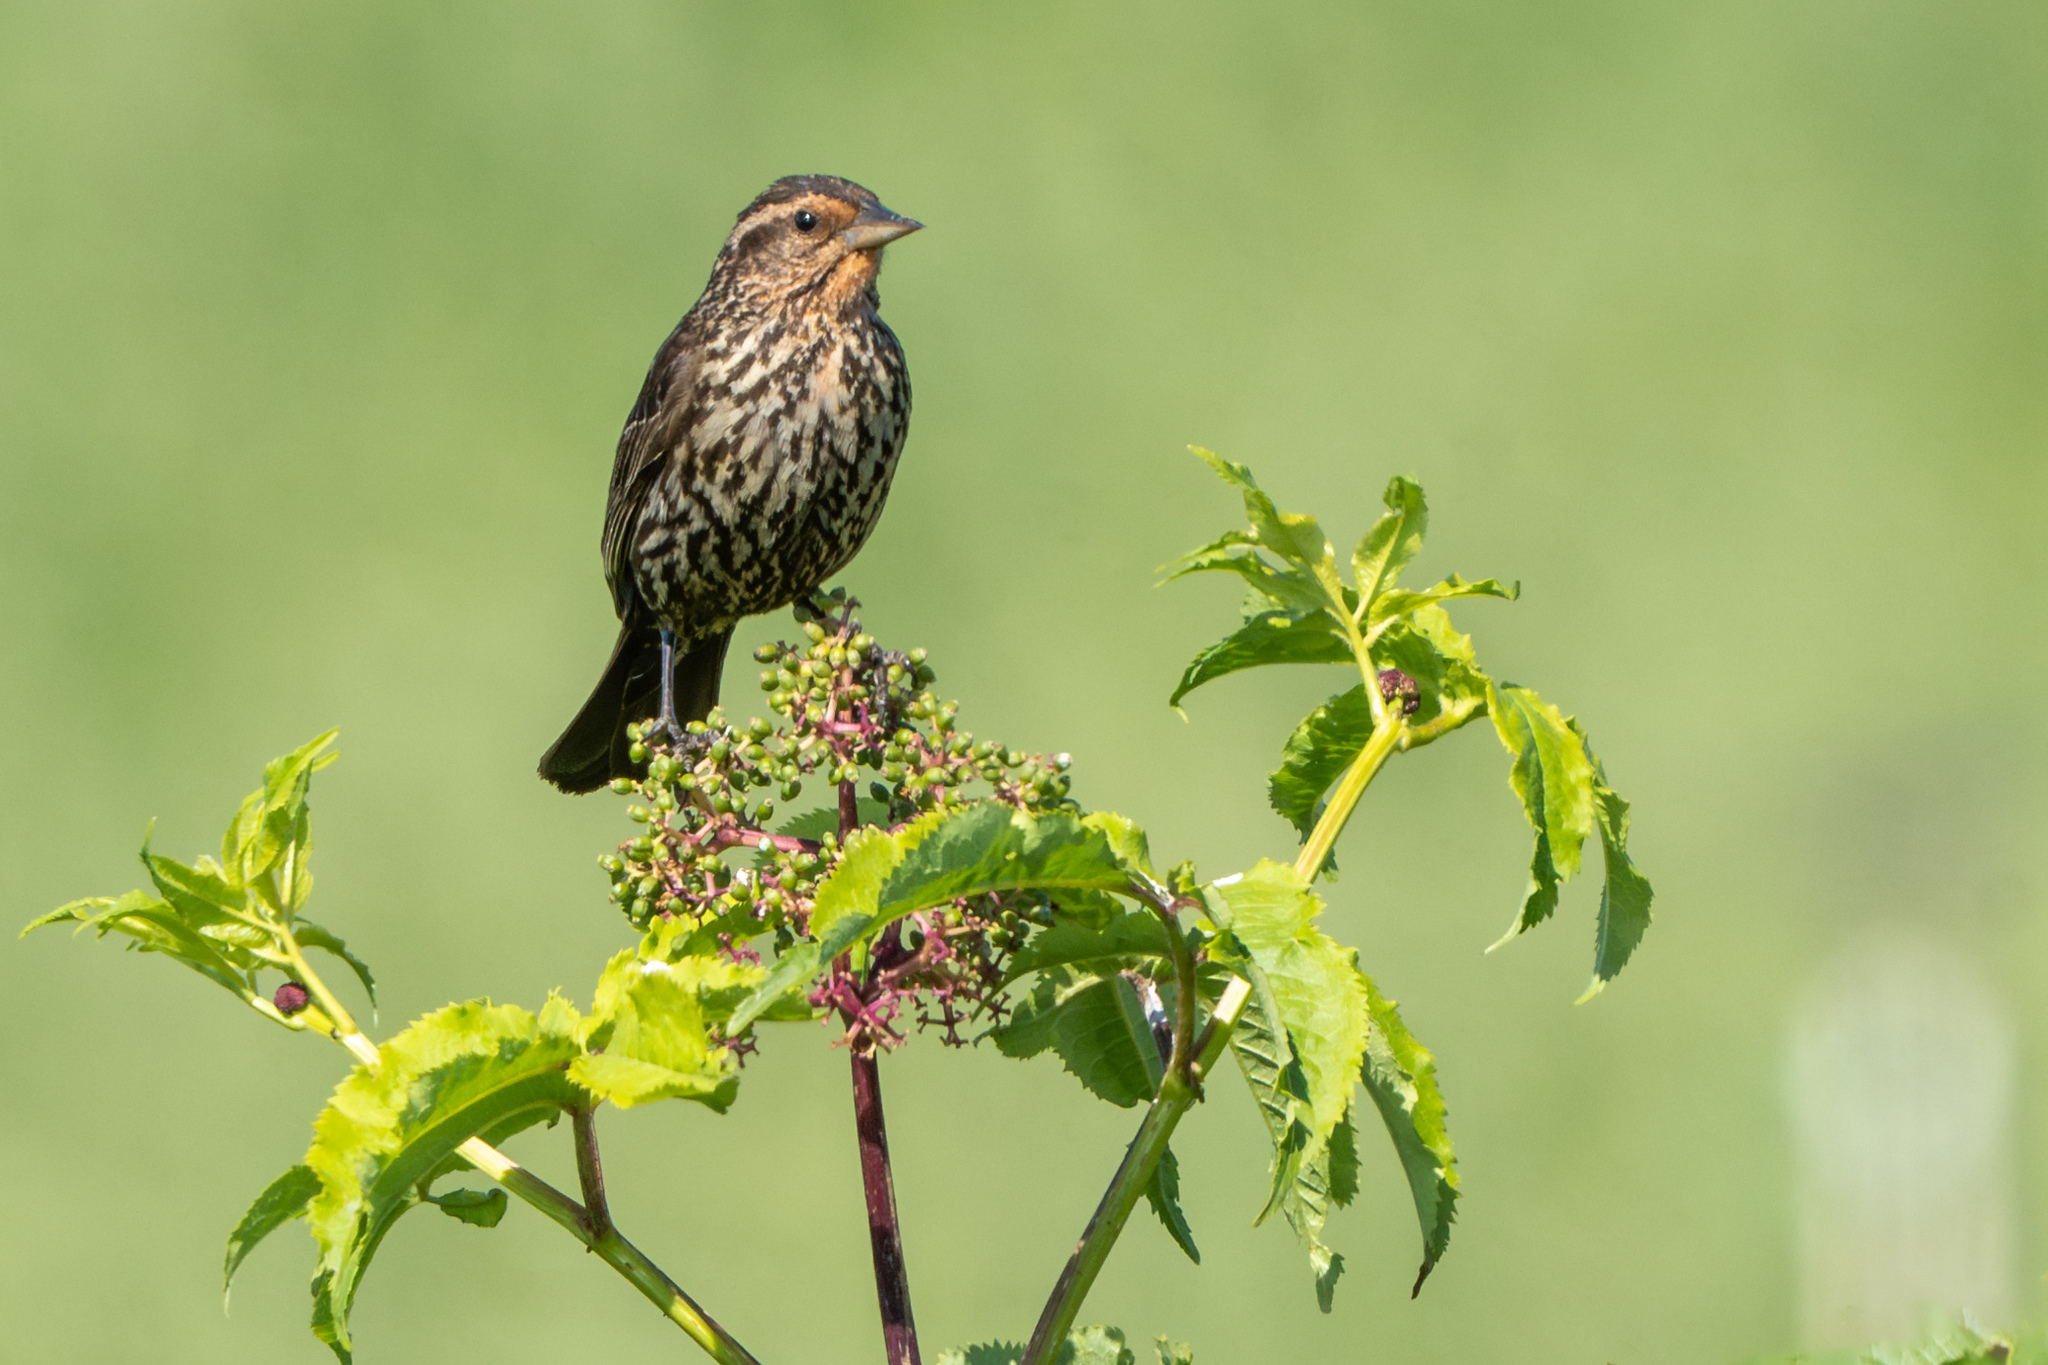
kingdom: Animalia
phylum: Chordata
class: Aves
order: Passeriformes
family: Icteridae
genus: Agelaius
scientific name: Agelaius phoeniceus
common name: Red-winged blackbird
